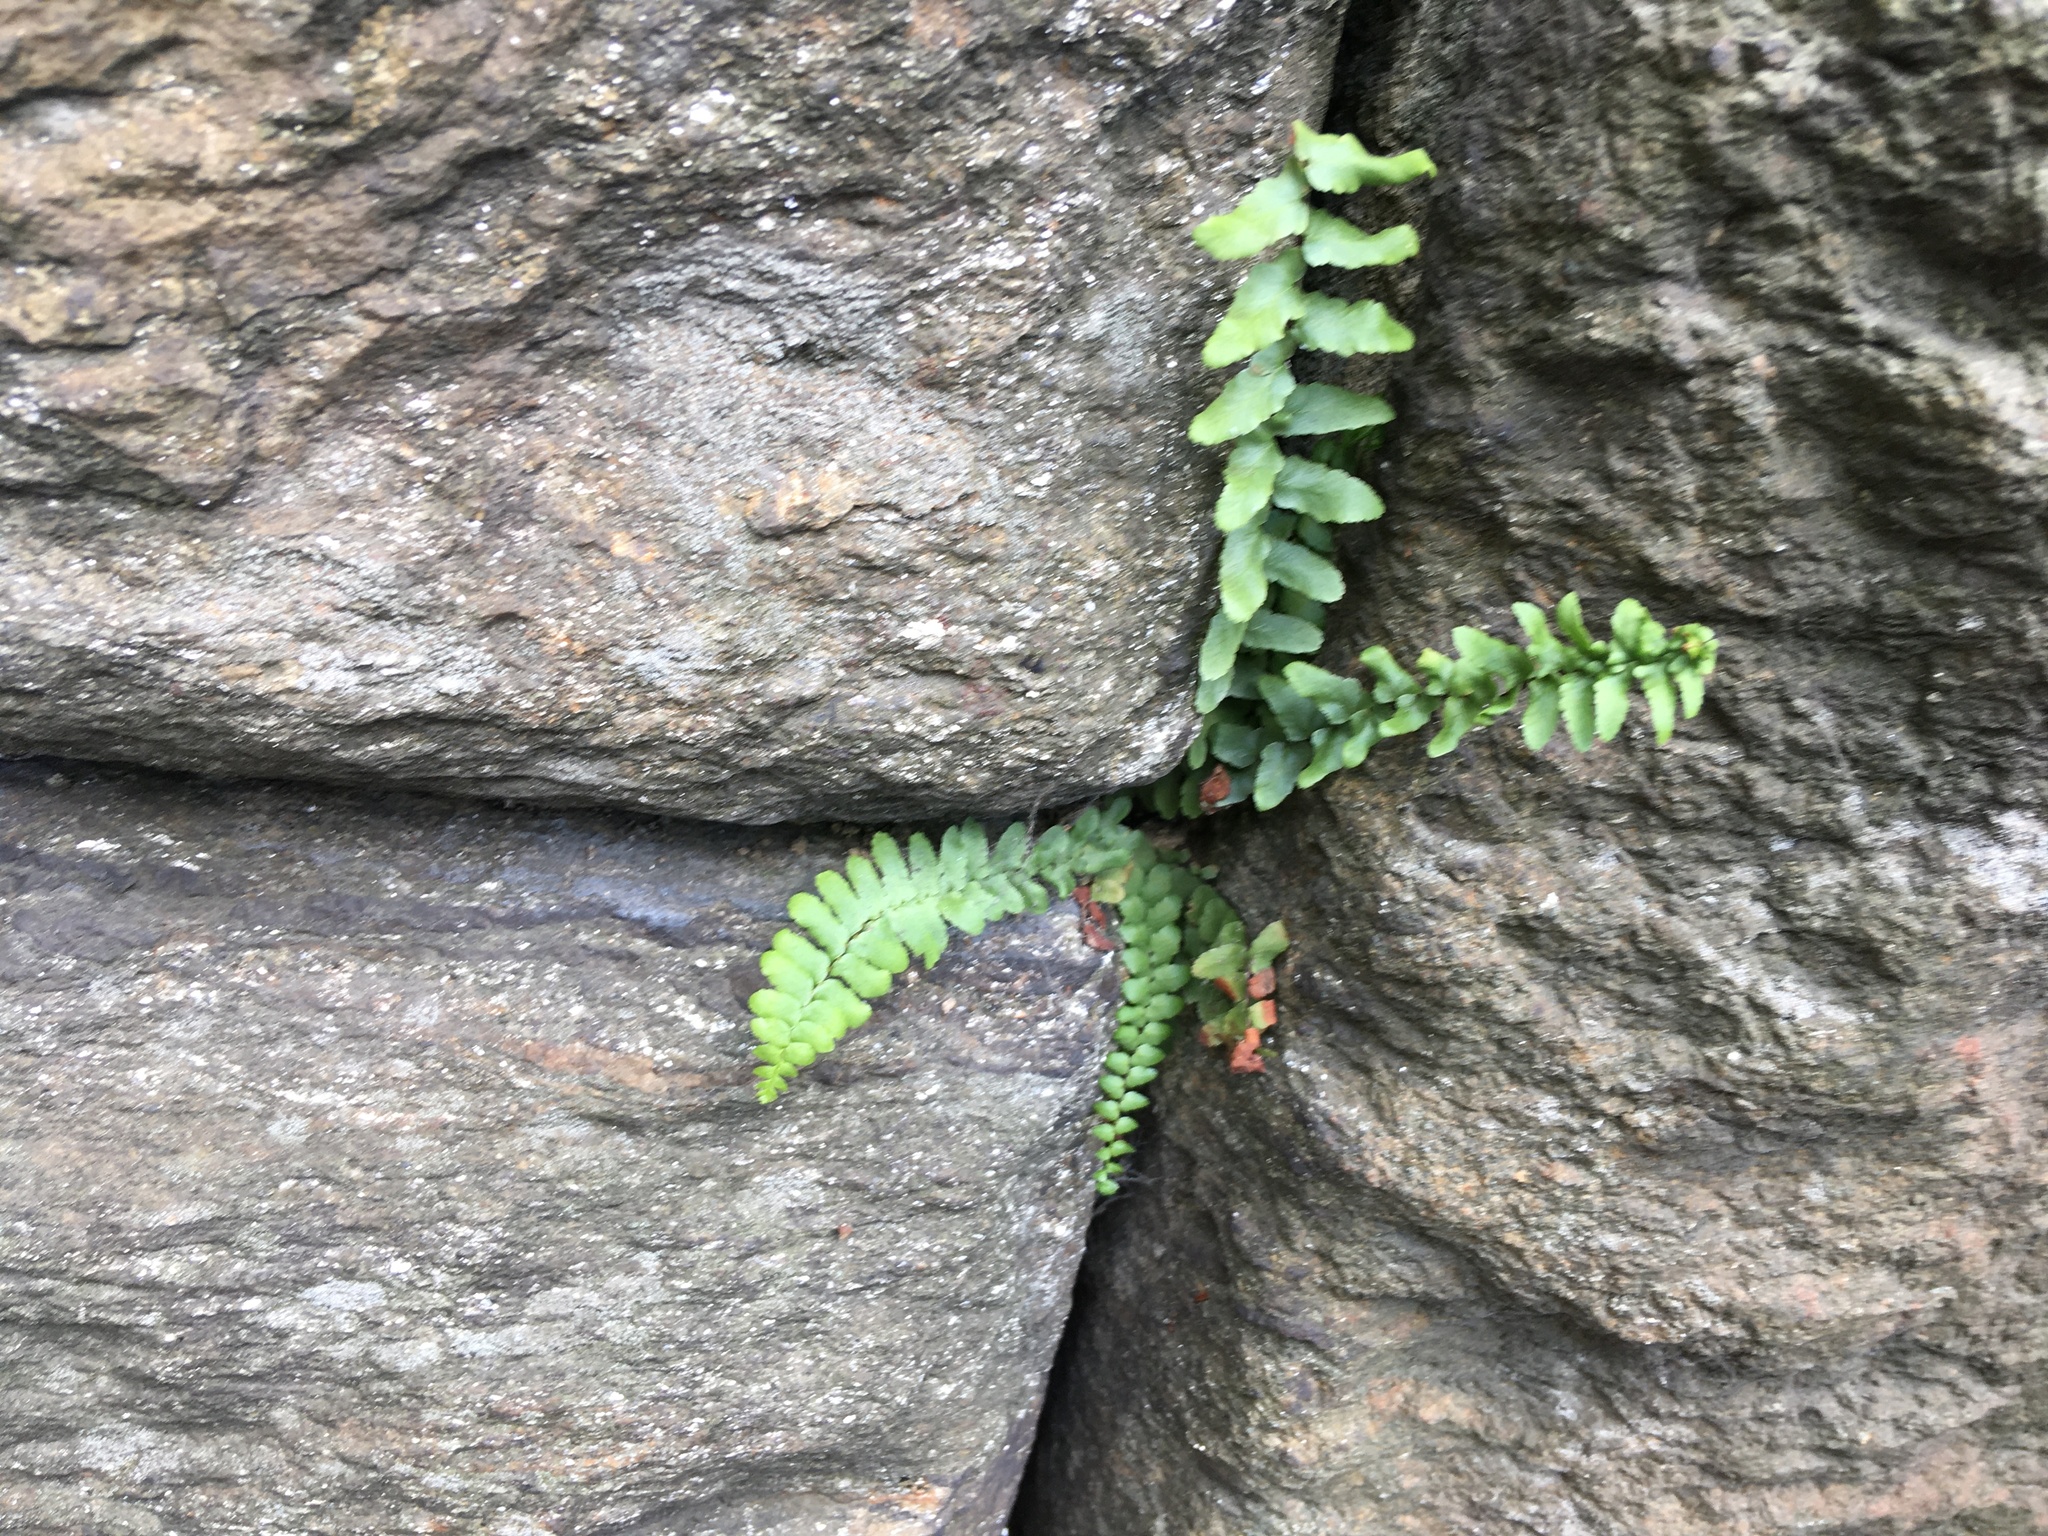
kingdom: Plantae
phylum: Tracheophyta
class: Polypodiopsida
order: Polypodiales
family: Aspleniaceae
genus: Asplenium
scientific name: Asplenium platyneuron
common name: Ebony spleenwort
